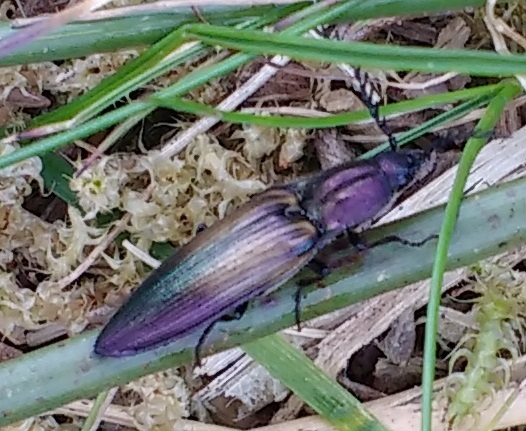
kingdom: Animalia
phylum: Arthropoda
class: Insecta
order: Coleoptera
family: Elateridae
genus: Ctenicera
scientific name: Ctenicera cuprea
